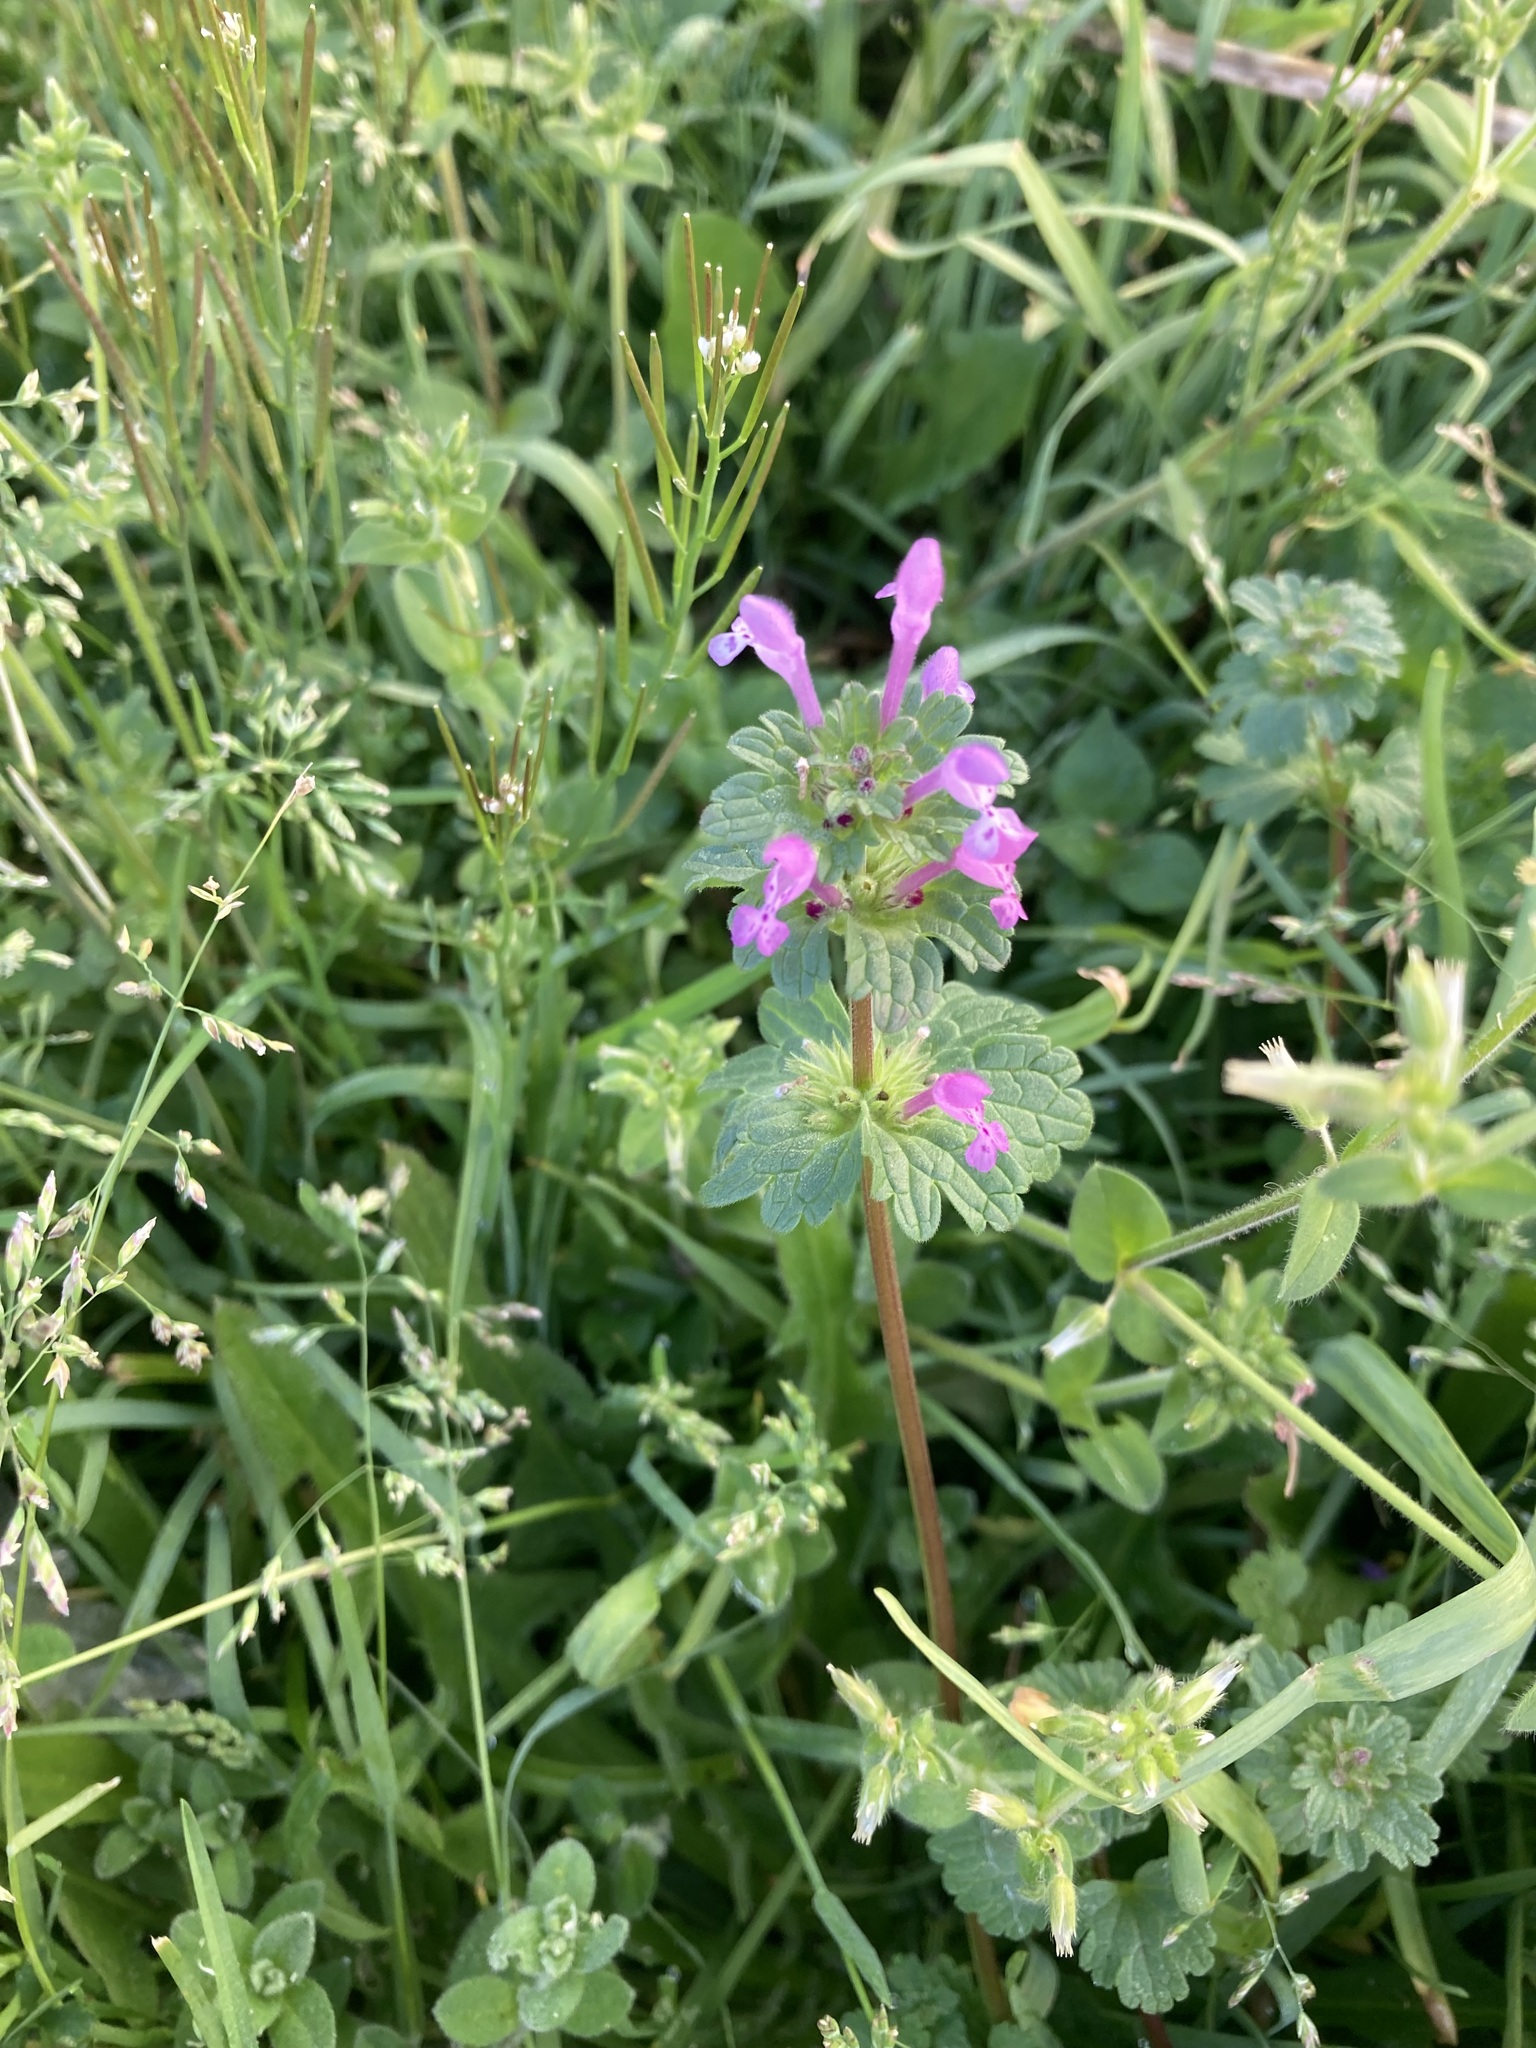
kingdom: Plantae
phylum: Tracheophyta
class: Magnoliopsida
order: Lamiales
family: Lamiaceae
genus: Lamium
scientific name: Lamium amplexicaule
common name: Henbit dead-nettle
